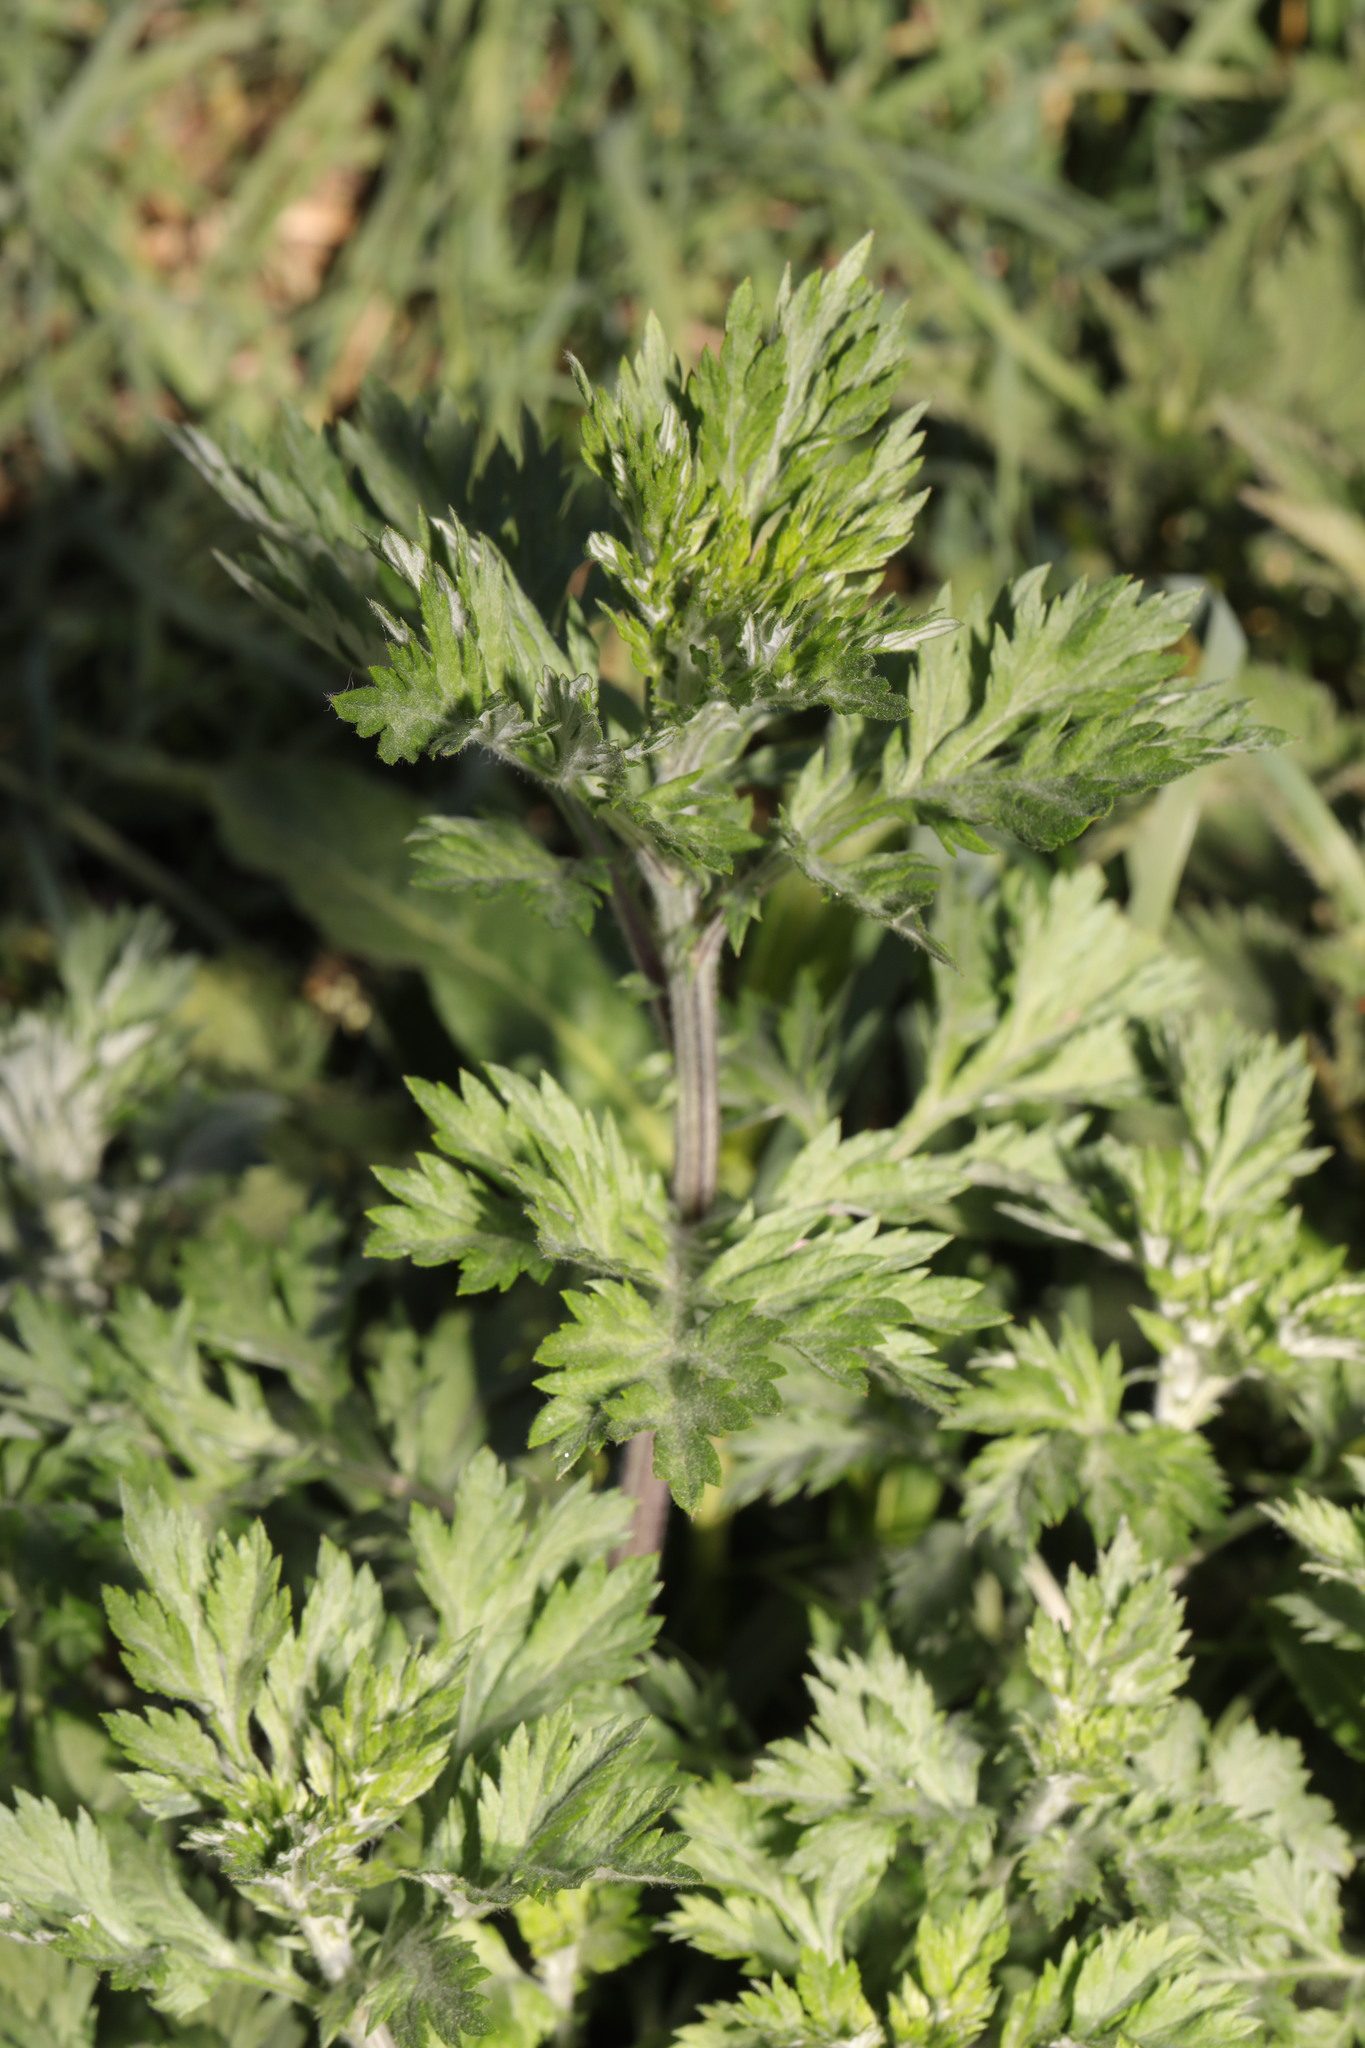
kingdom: Plantae
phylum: Tracheophyta
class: Magnoliopsida
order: Asterales
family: Asteraceae
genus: Artemisia
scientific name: Artemisia vulgaris
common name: Mugwort
